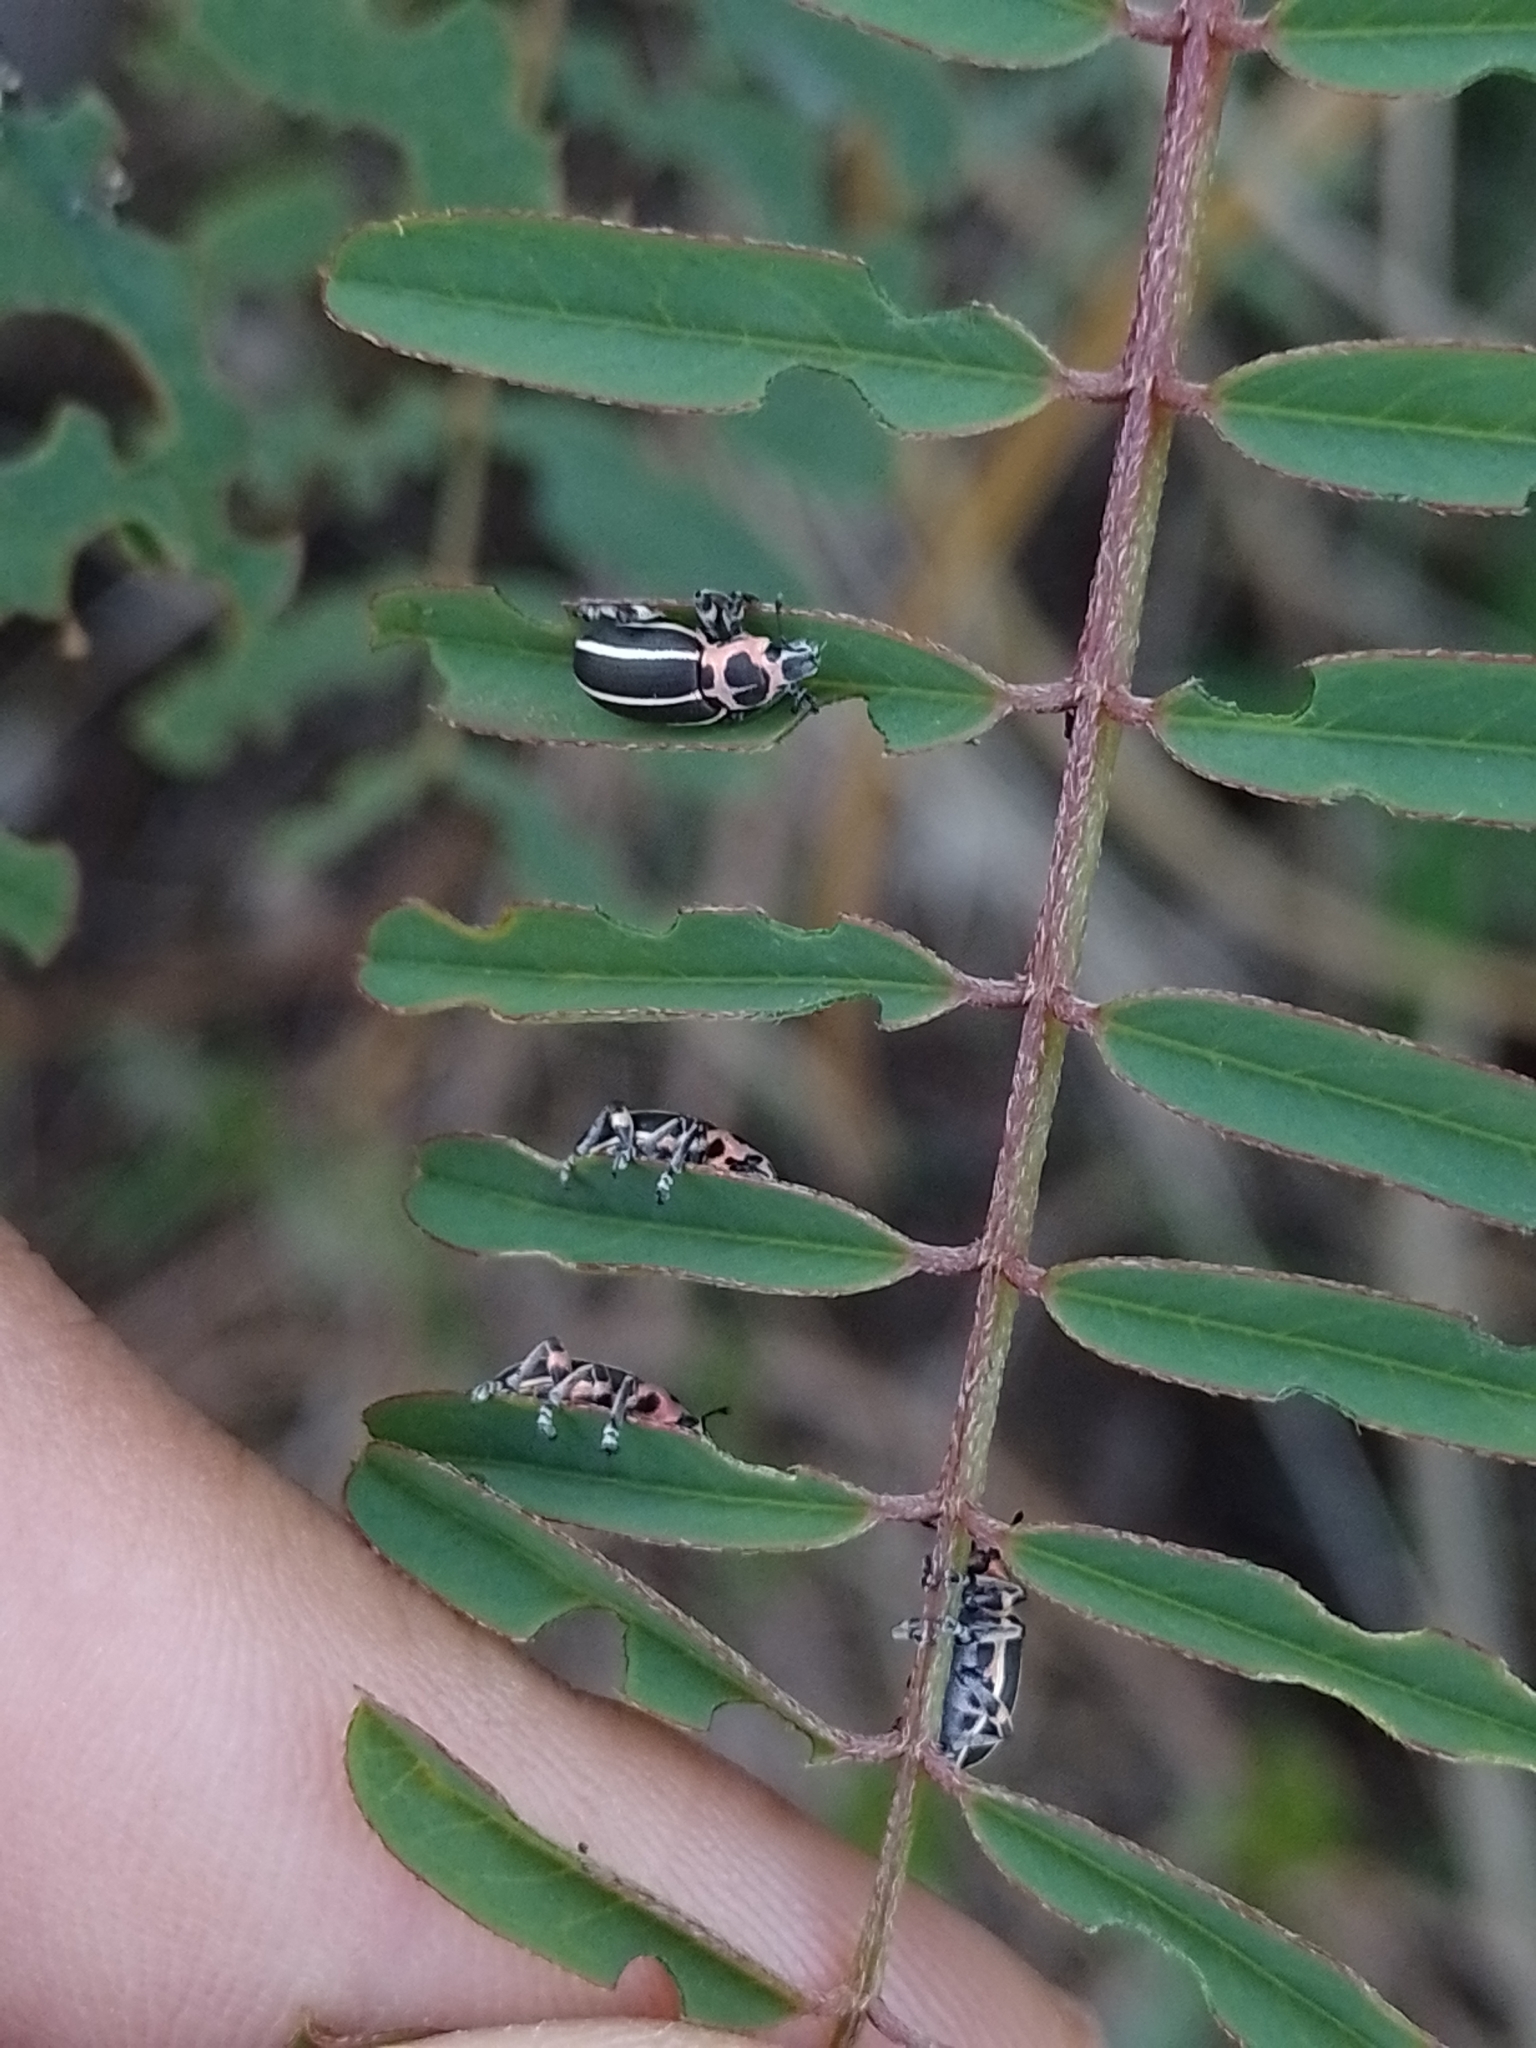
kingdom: Animalia
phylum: Arthropoda
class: Insecta
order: Coleoptera
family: Curculionidae
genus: Eudiagogus
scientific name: Eudiagogus episcopalis
